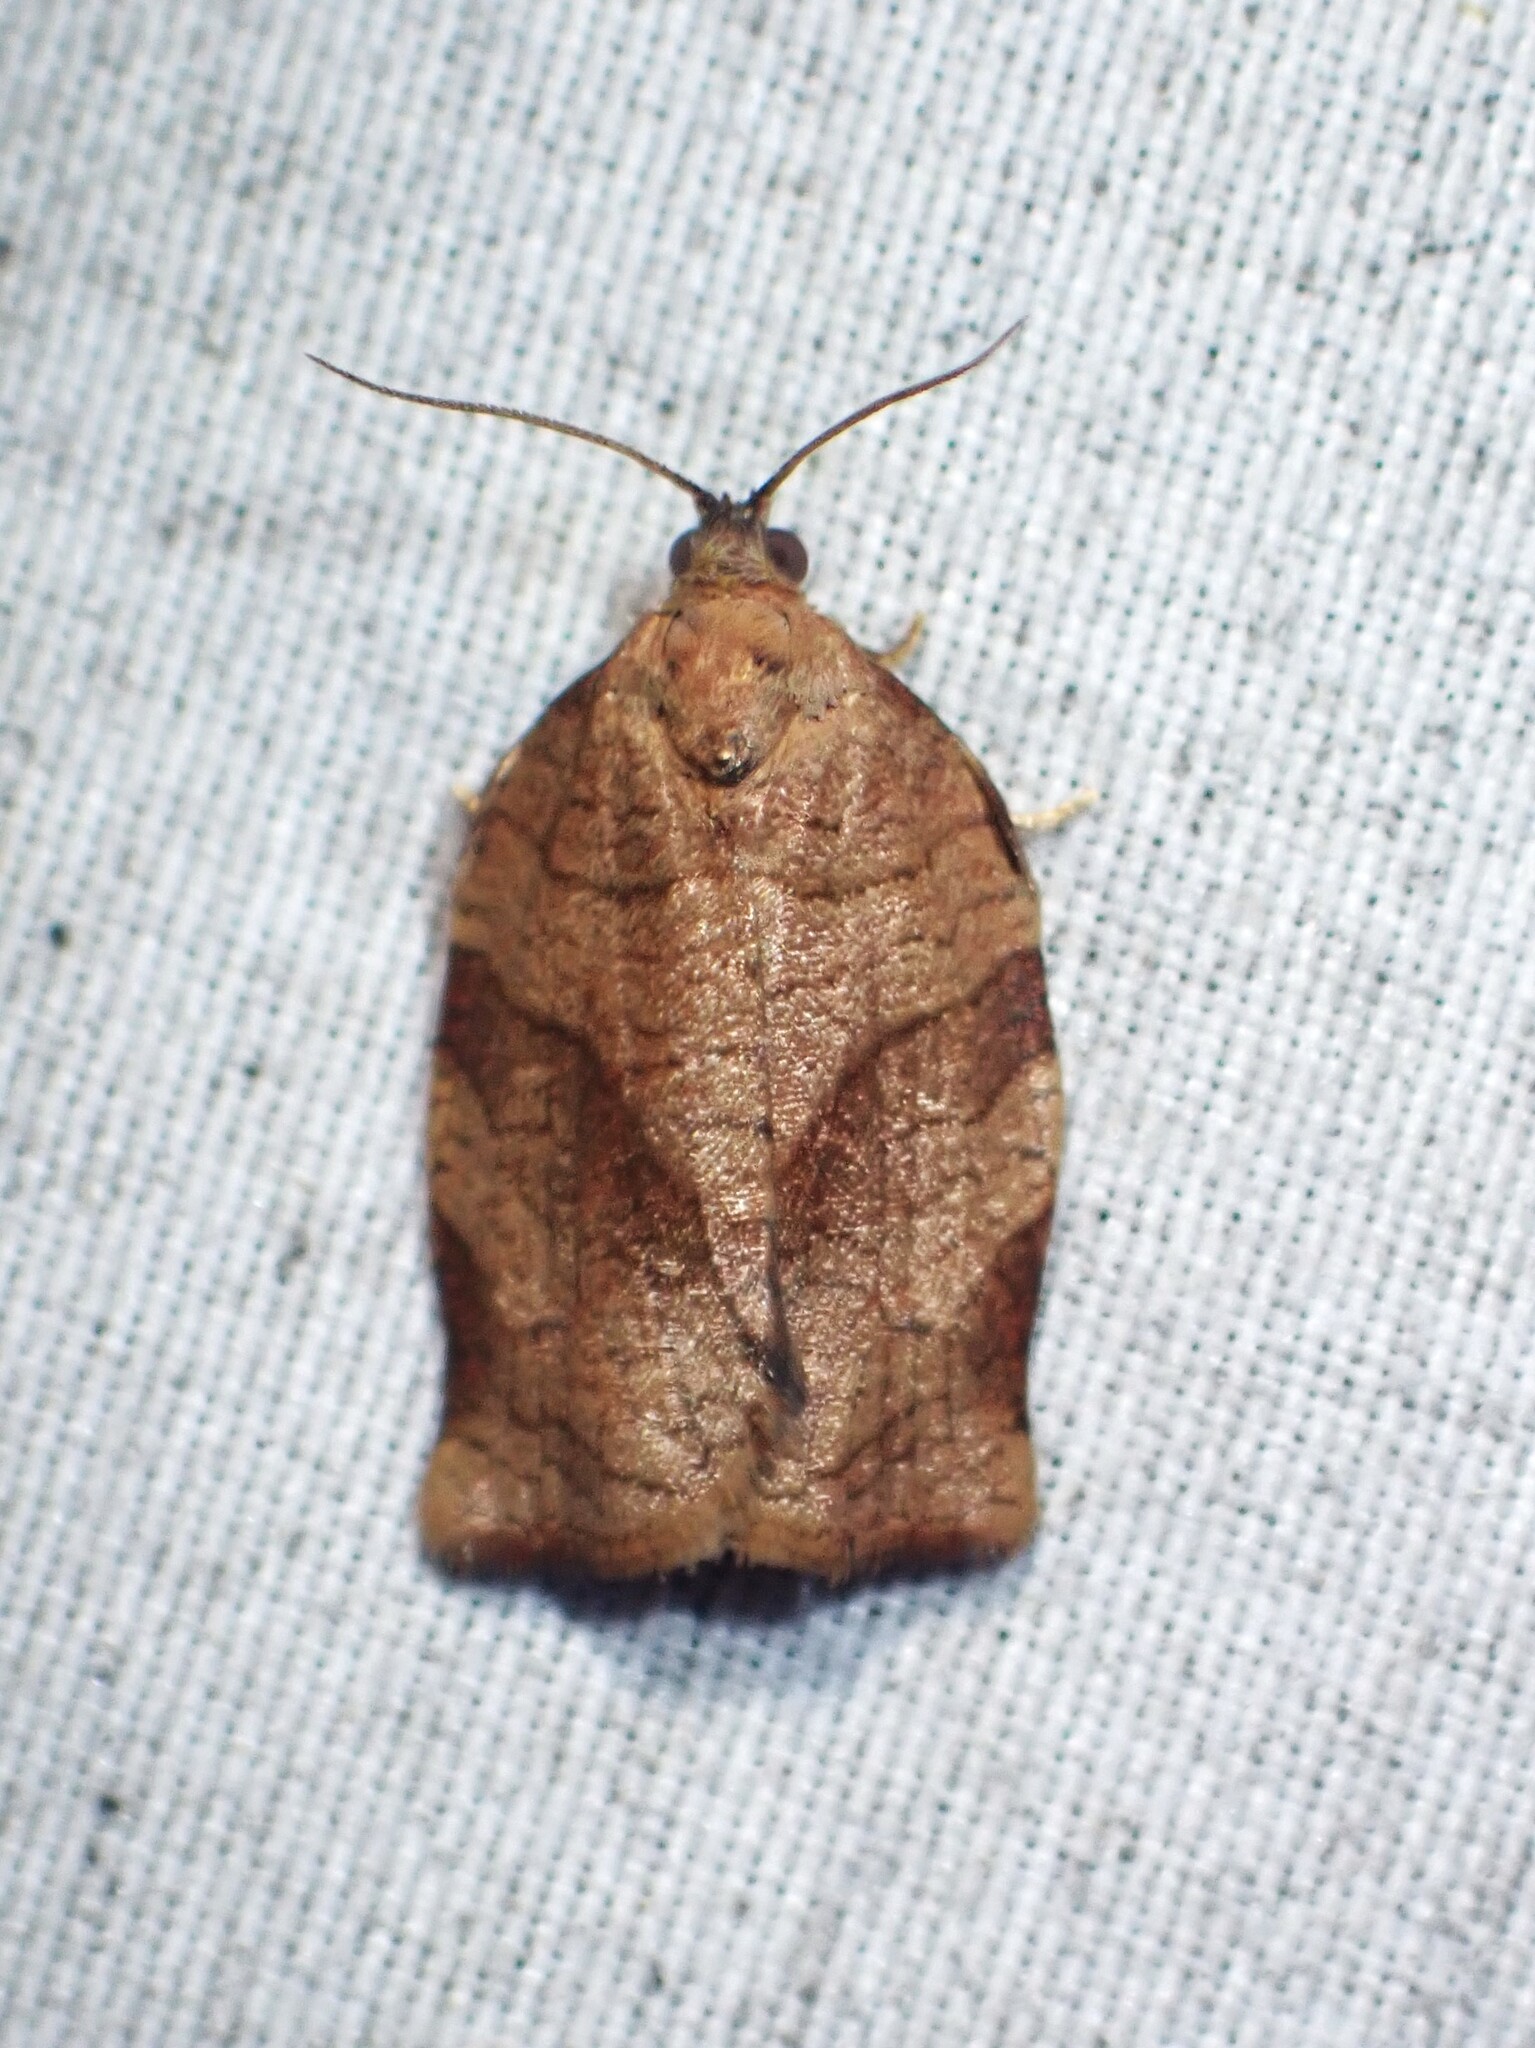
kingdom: Animalia
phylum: Arthropoda
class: Insecta
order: Lepidoptera
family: Tortricidae
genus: Choristoneura
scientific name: Choristoneura rosaceana
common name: Oblique-banded leafroller moth
